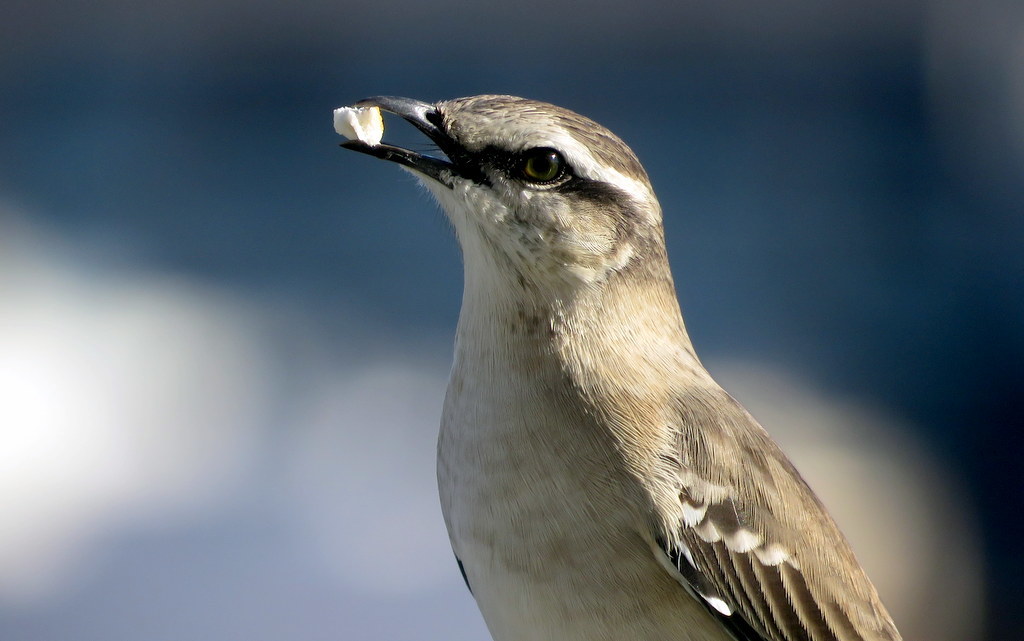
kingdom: Animalia
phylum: Chordata
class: Aves
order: Passeriformes
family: Mimidae
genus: Mimus
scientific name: Mimus saturninus
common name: Chalk-browed mockingbird
